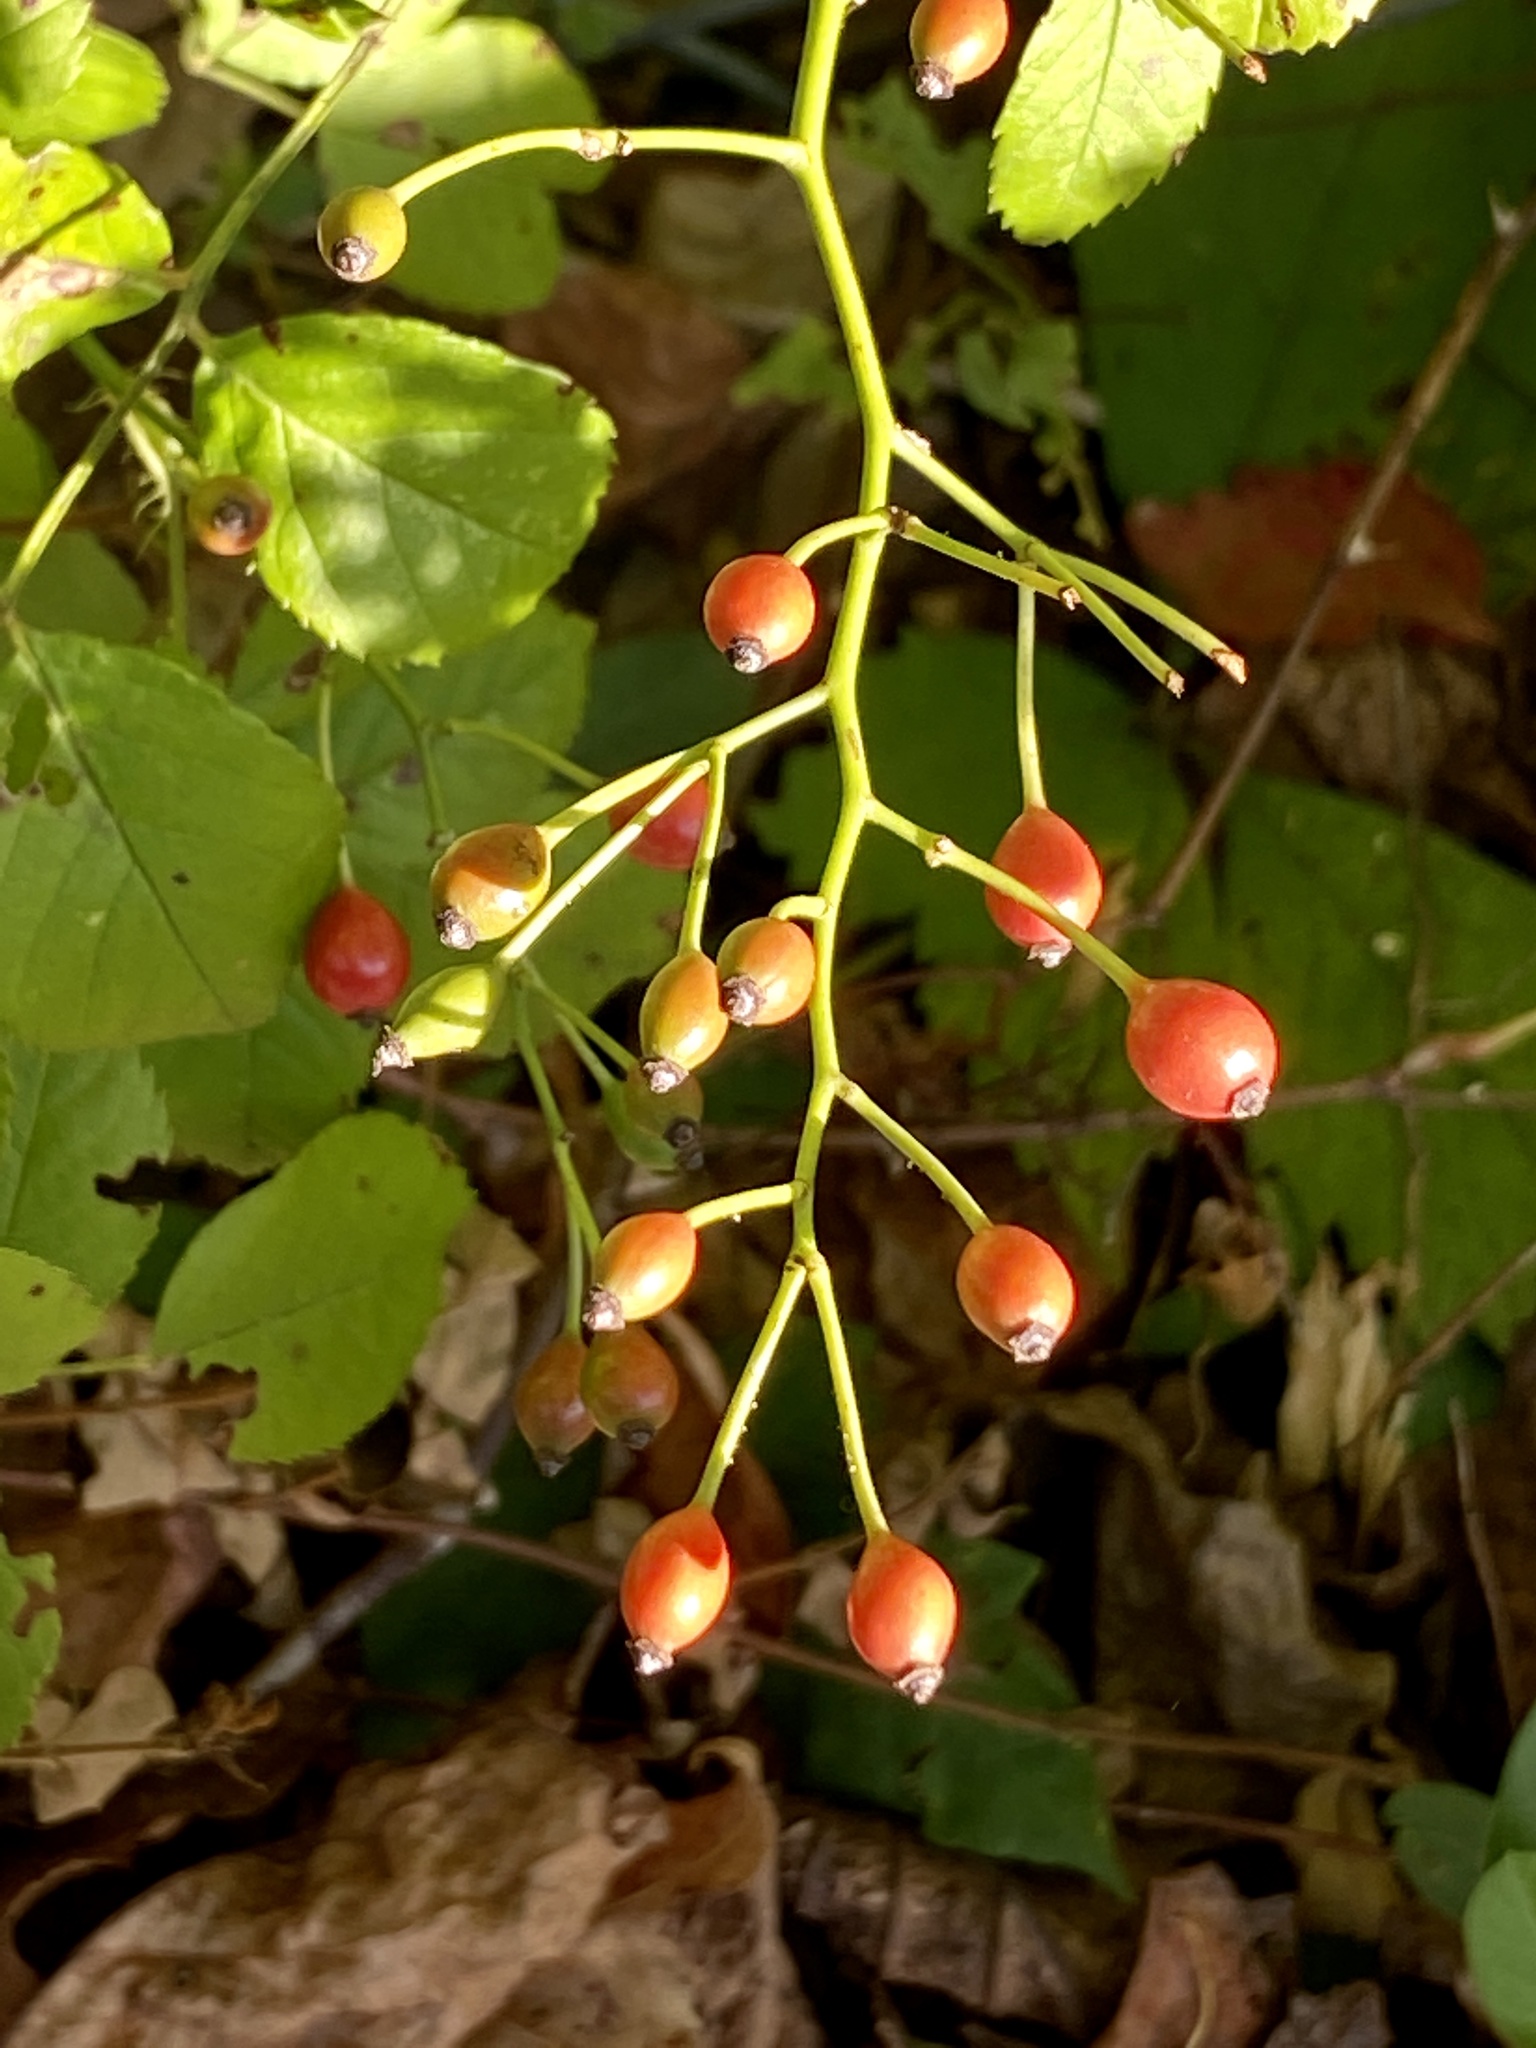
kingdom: Plantae
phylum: Tracheophyta
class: Magnoliopsida
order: Rosales
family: Rosaceae
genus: Rosa
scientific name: Rosa multiflora
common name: Multiflora rose
